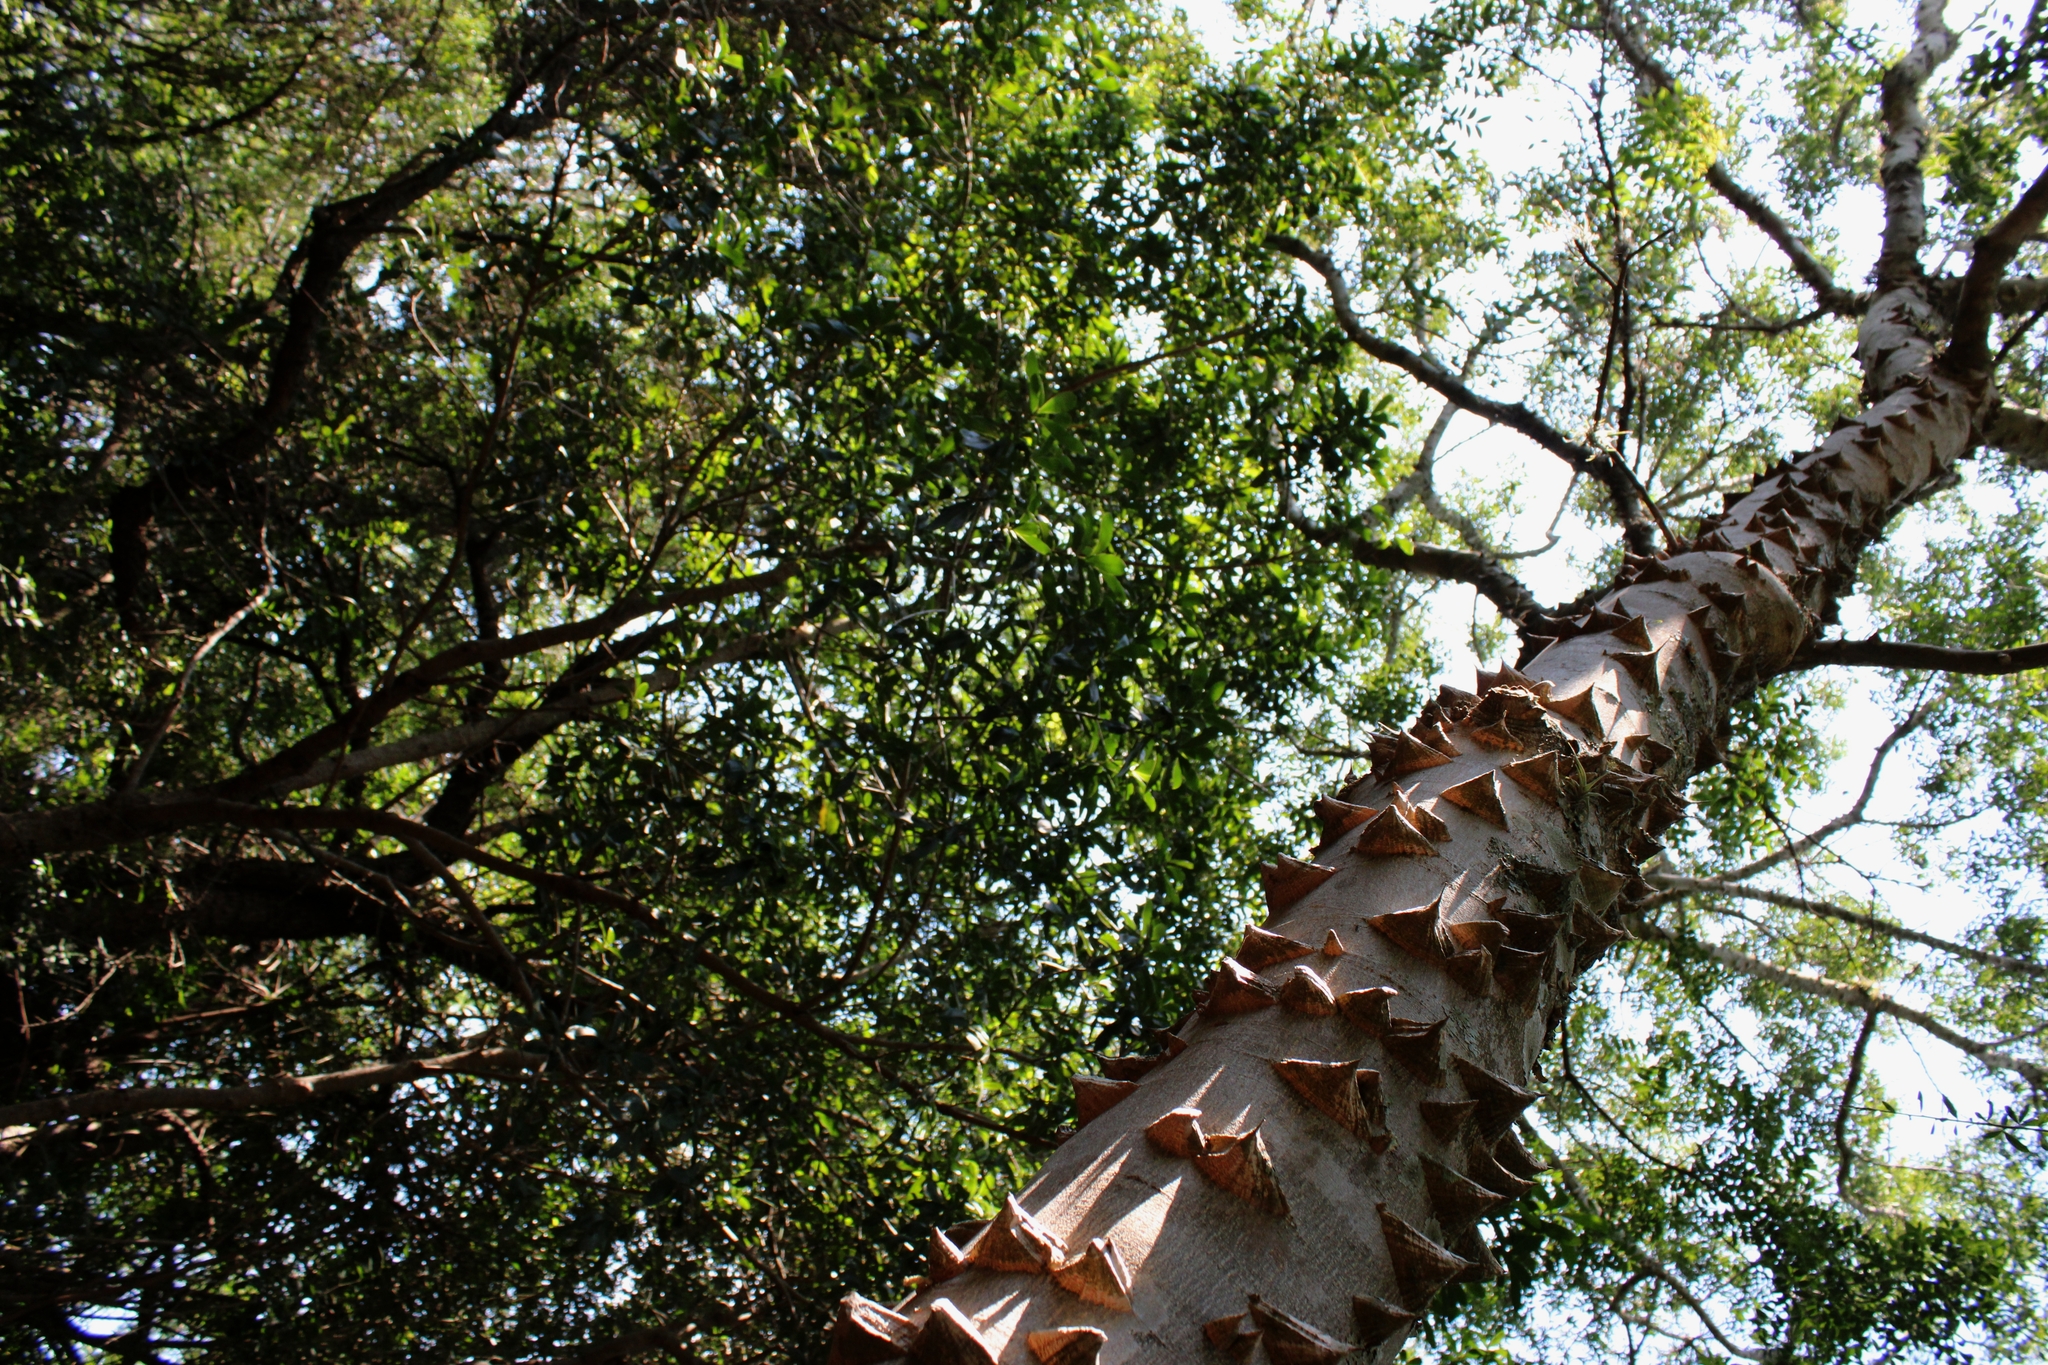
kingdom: Plantae
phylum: Tracheophyta
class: Magnoliopsida
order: Sapindales
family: Rutaceae
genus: Zanthoxylum
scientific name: Zanthoxylum rhoifolium
